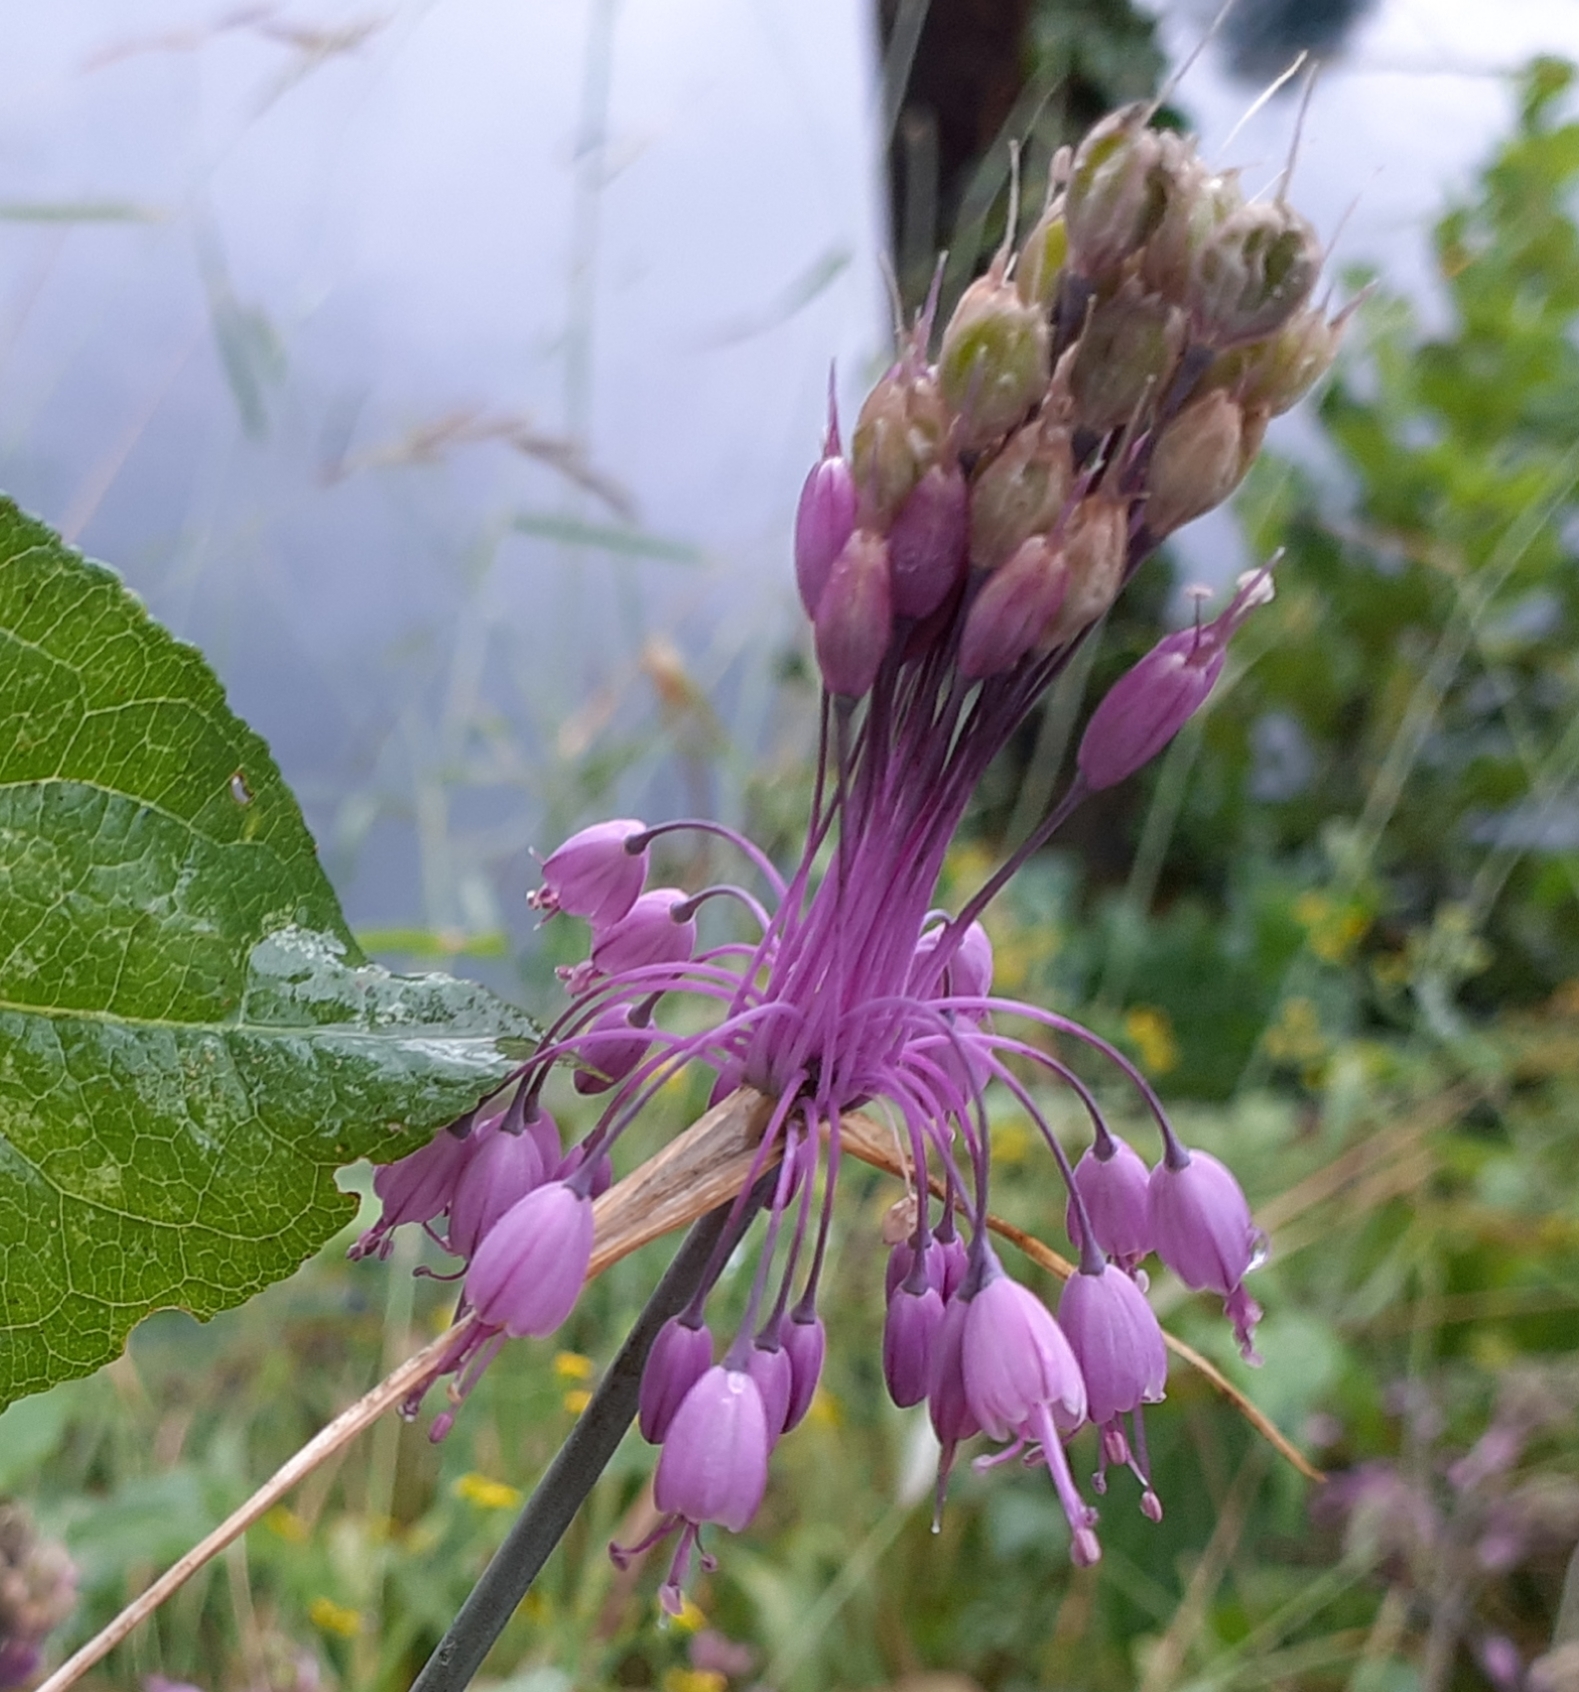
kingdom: Plantae
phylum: Tracheophyta
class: Liliopsida
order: Asparagales
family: Amaryllidaceae
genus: Allium
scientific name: Allium carinatum
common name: Keeled garlic
